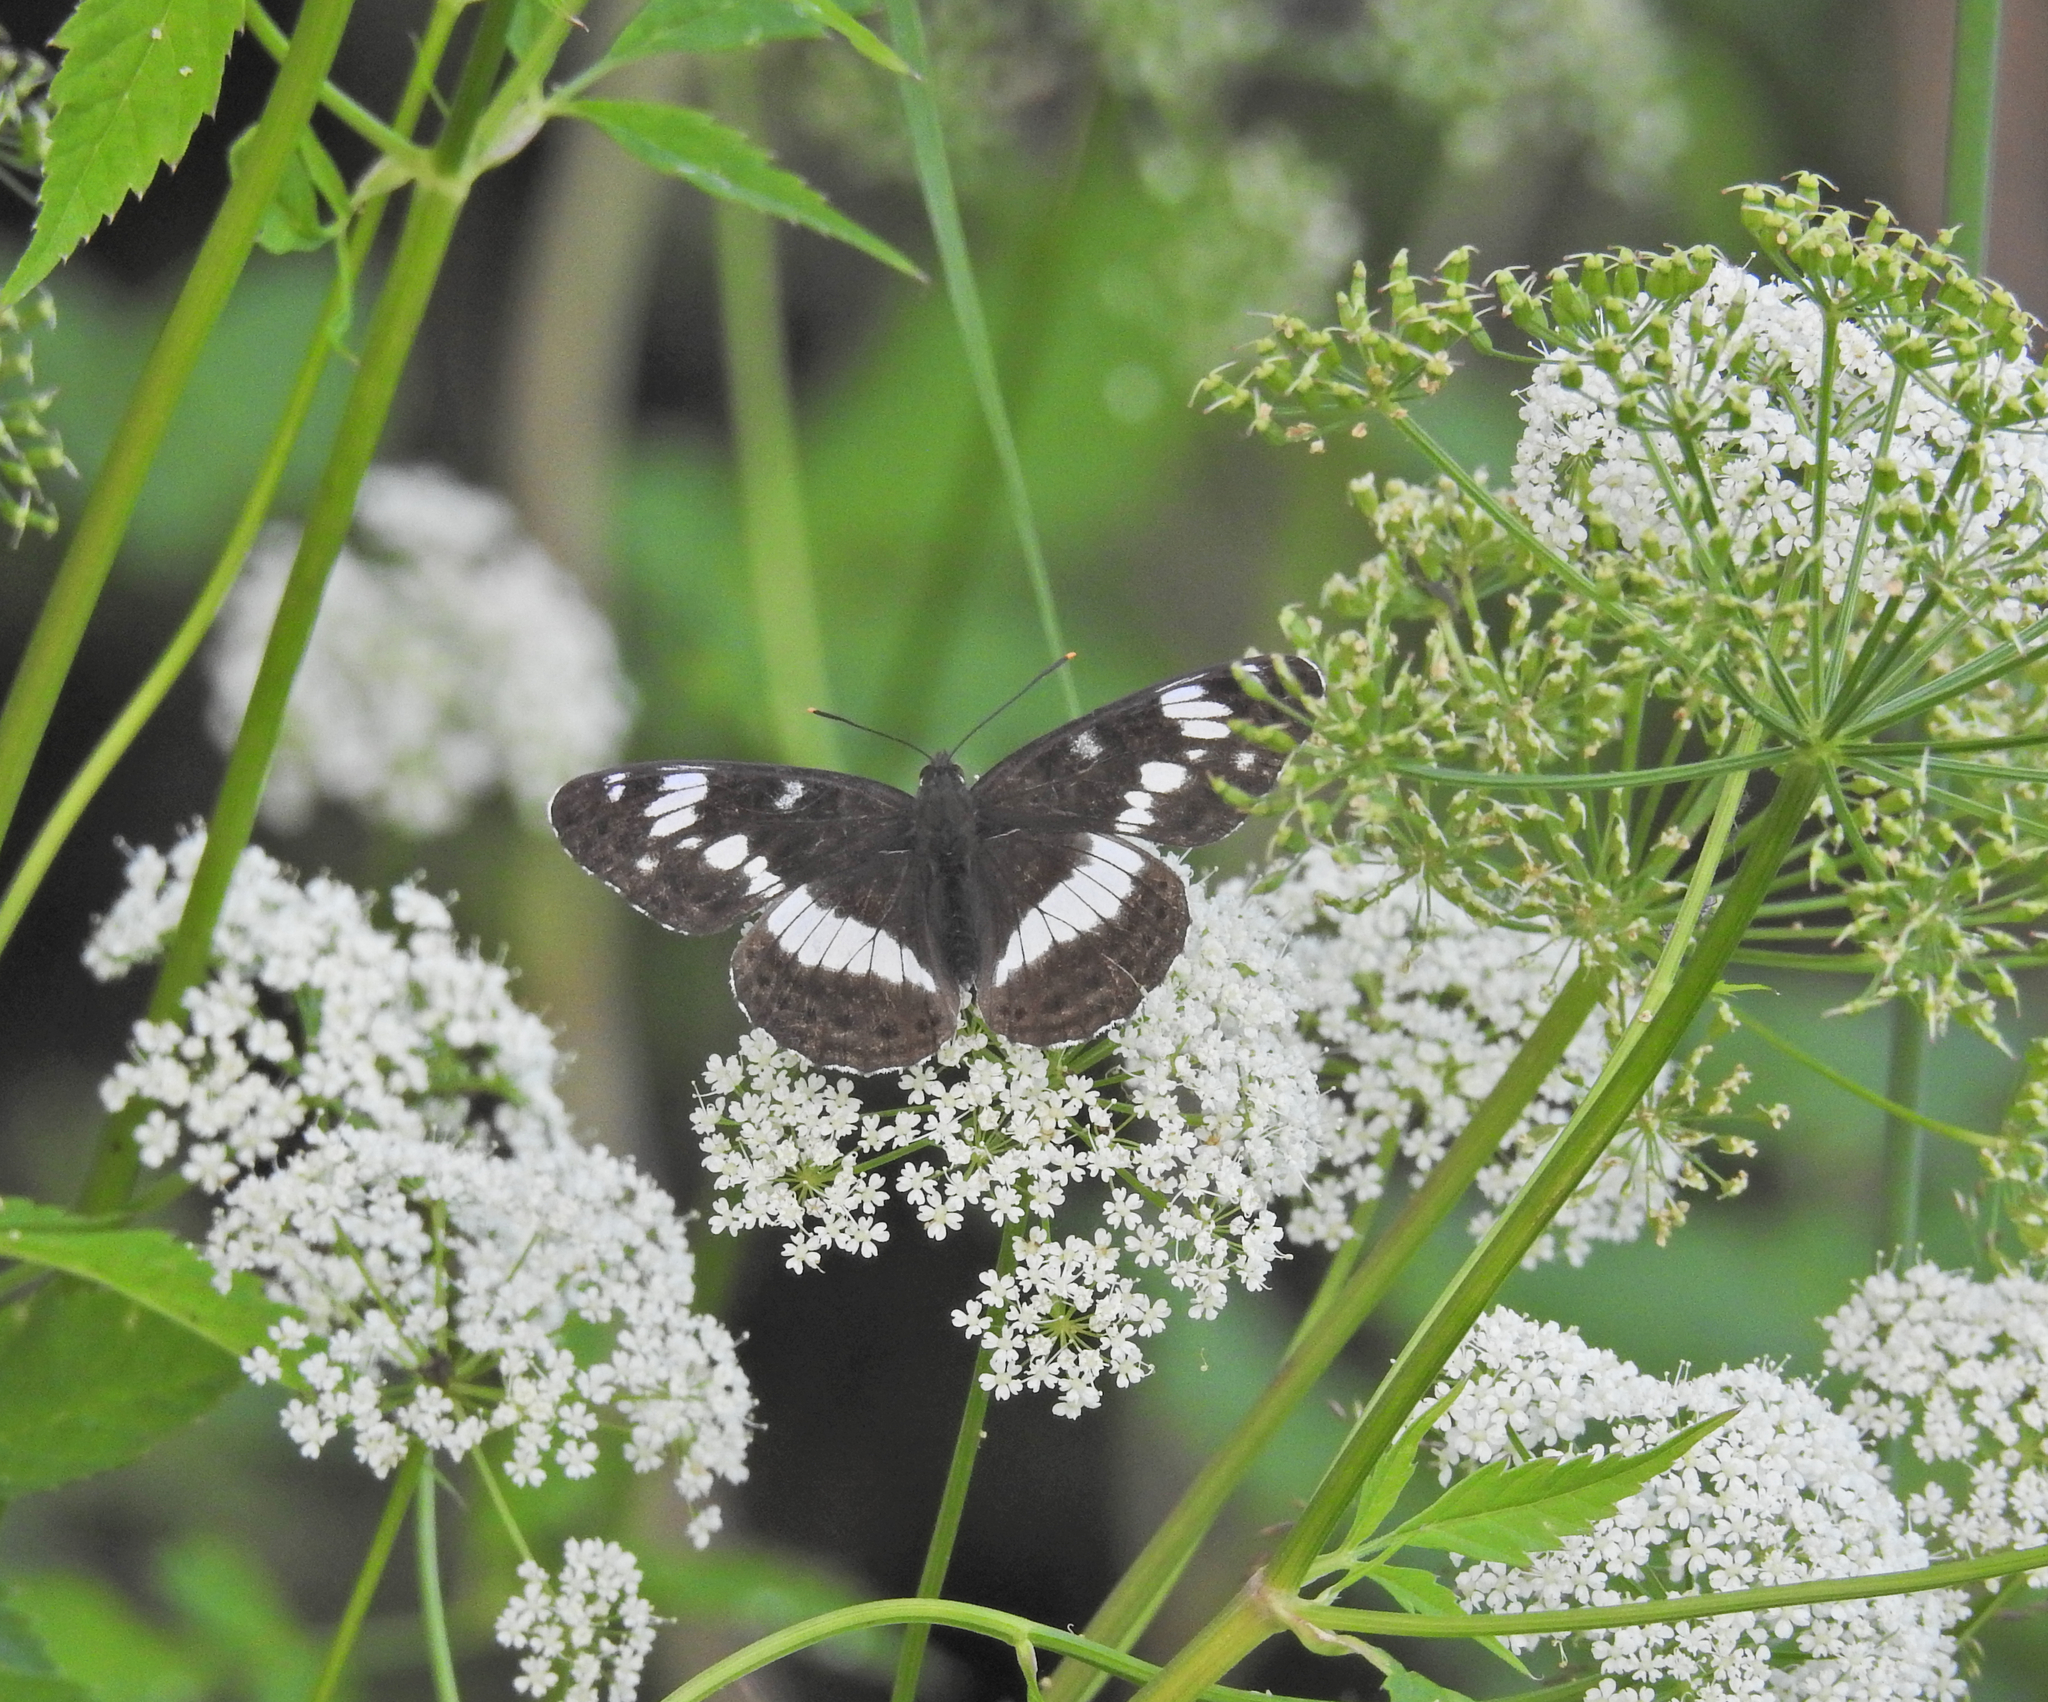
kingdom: Animalia
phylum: Arthropoda
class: Insecta
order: Lepidoptera
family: Nymphalidae
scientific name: Nymphalidae
